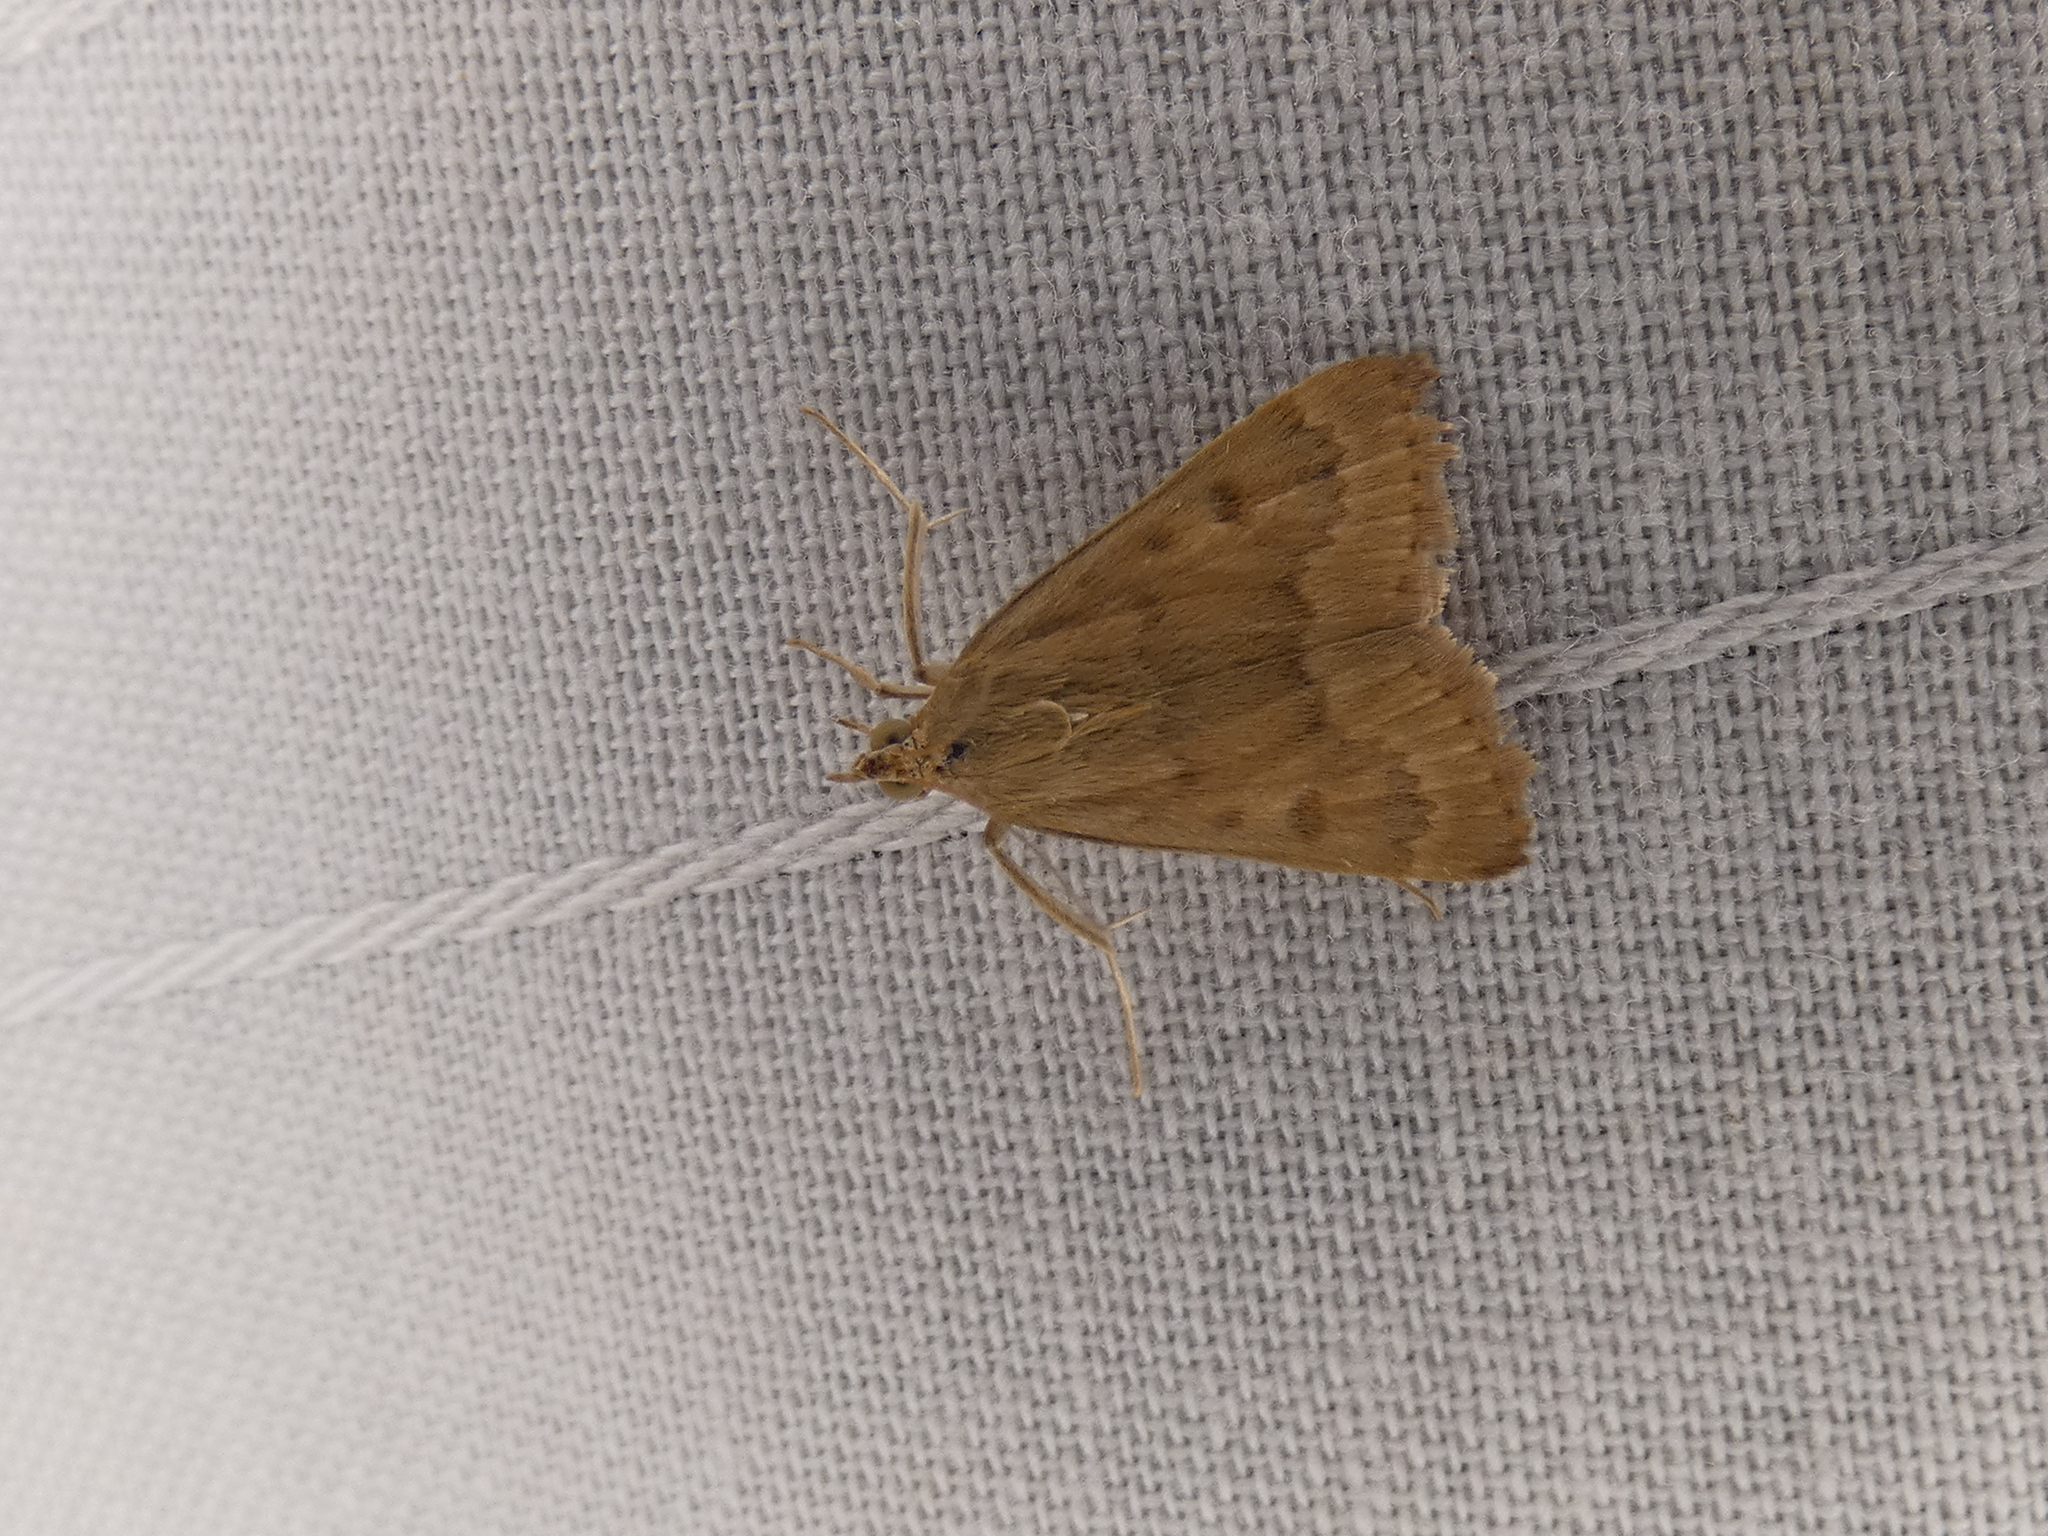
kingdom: Animalia
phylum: Arthropoda
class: Insecta
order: Lepidoptera
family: Crambidae
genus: Achyra
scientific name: Achyra rantalis
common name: Garden webworm
